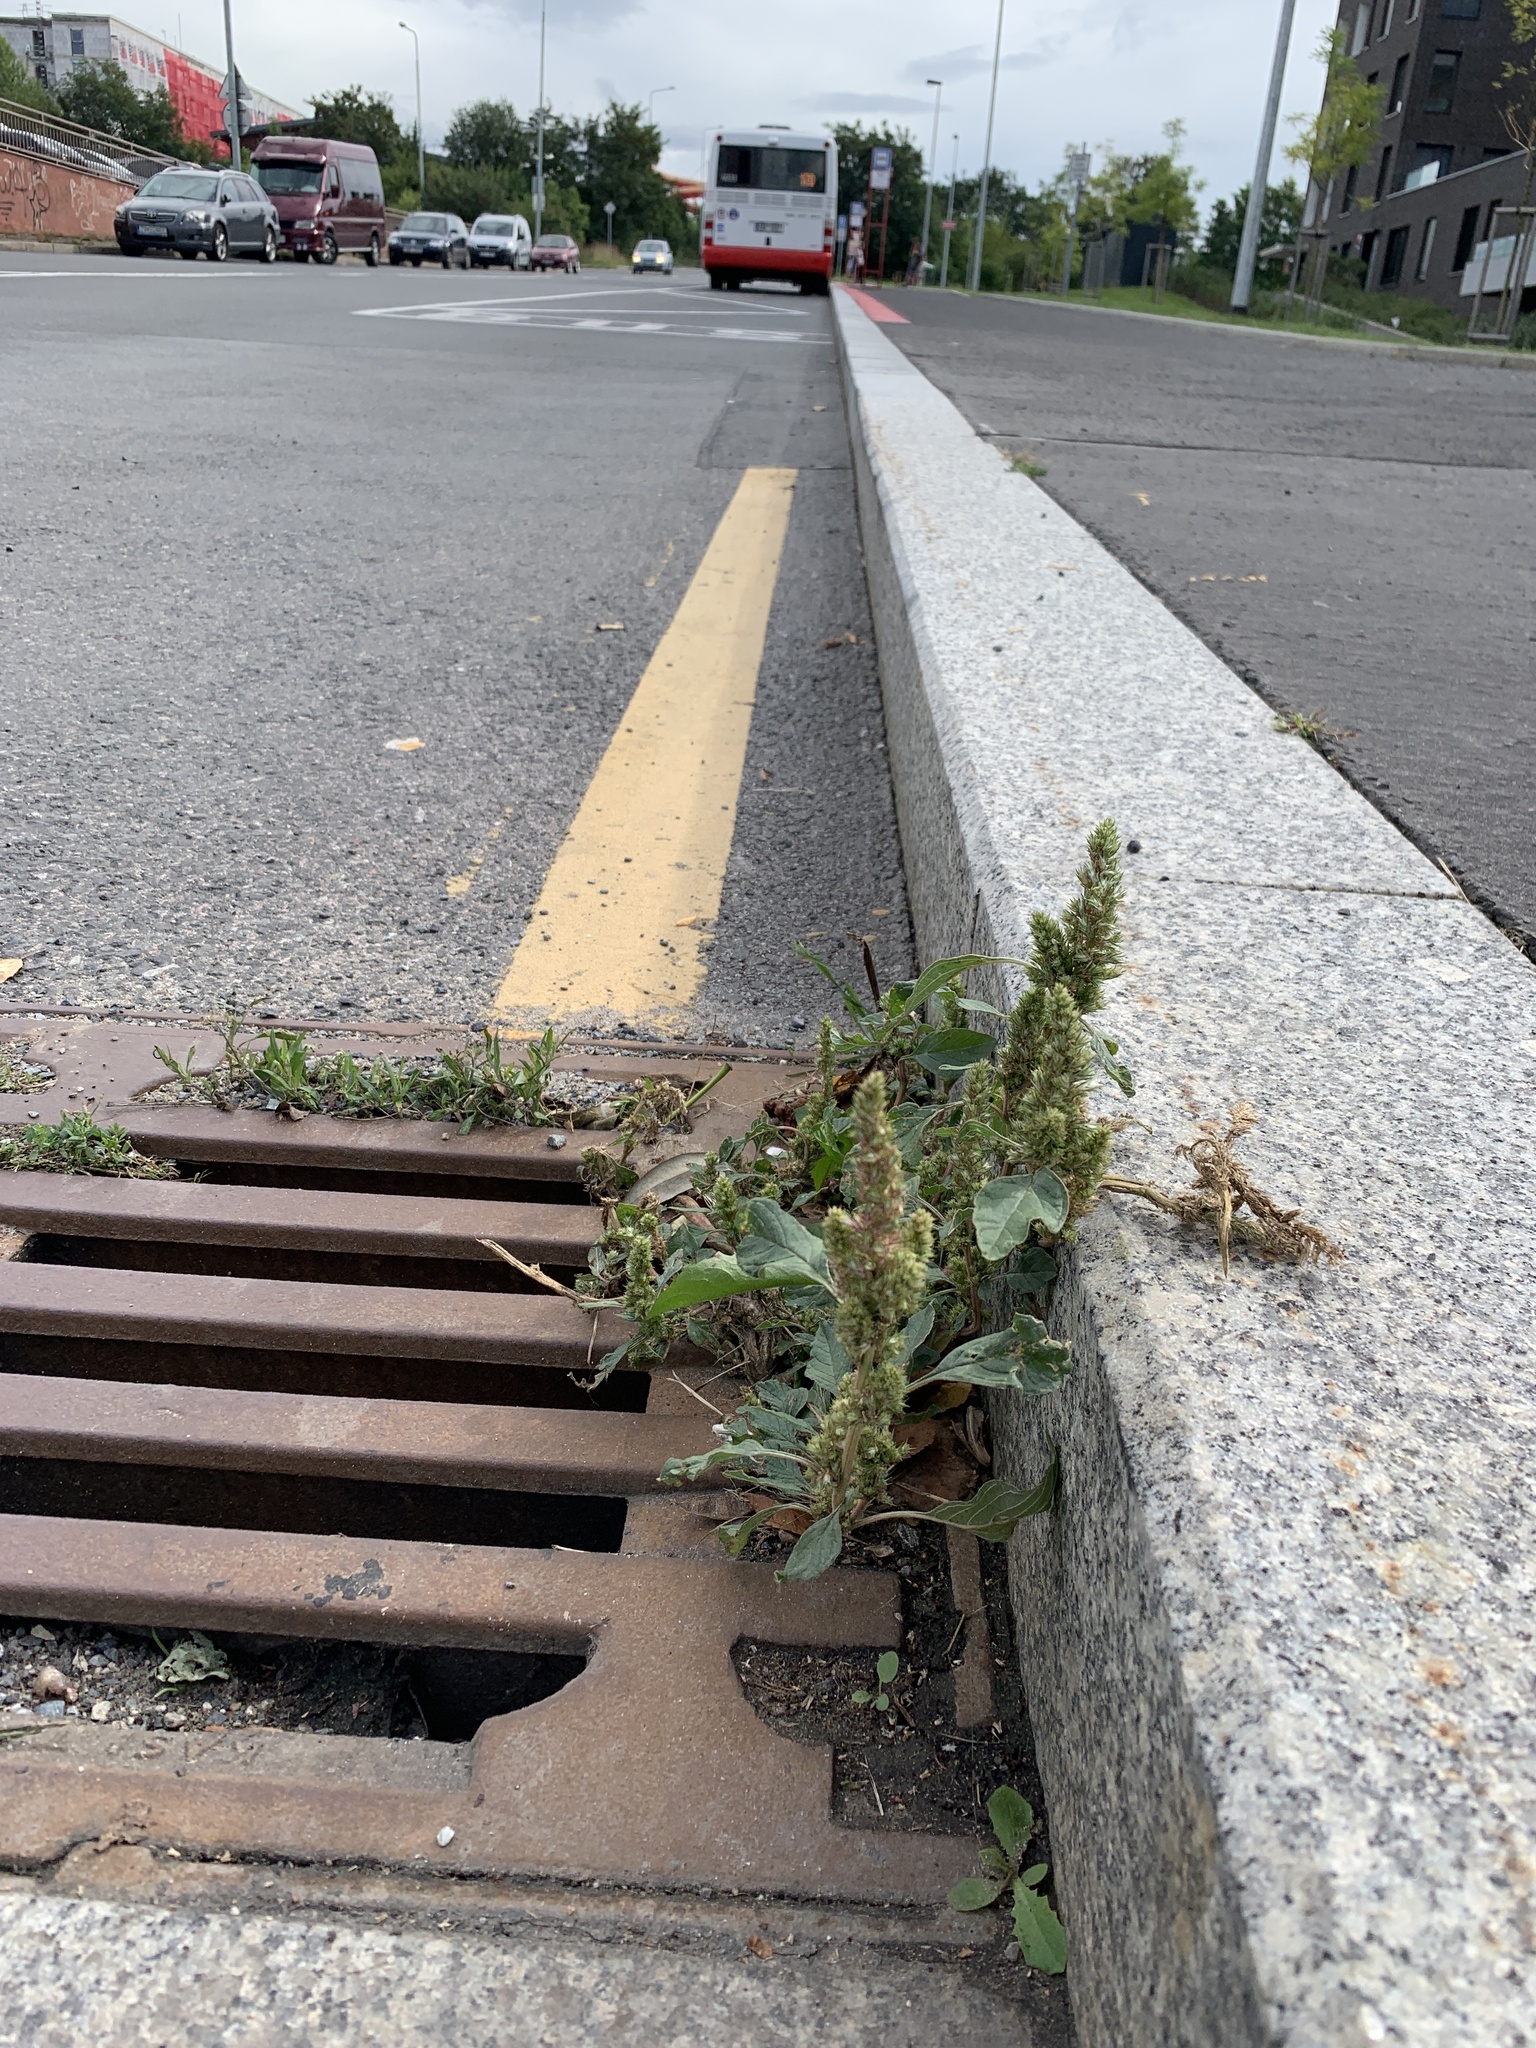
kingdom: Plantae
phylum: Tracheophyta
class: Magnoliopsida
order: Caryophyllales
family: Amaranthaceae
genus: Amaranthus
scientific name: Amaranthus retroflexus
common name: Redroot amaranth
